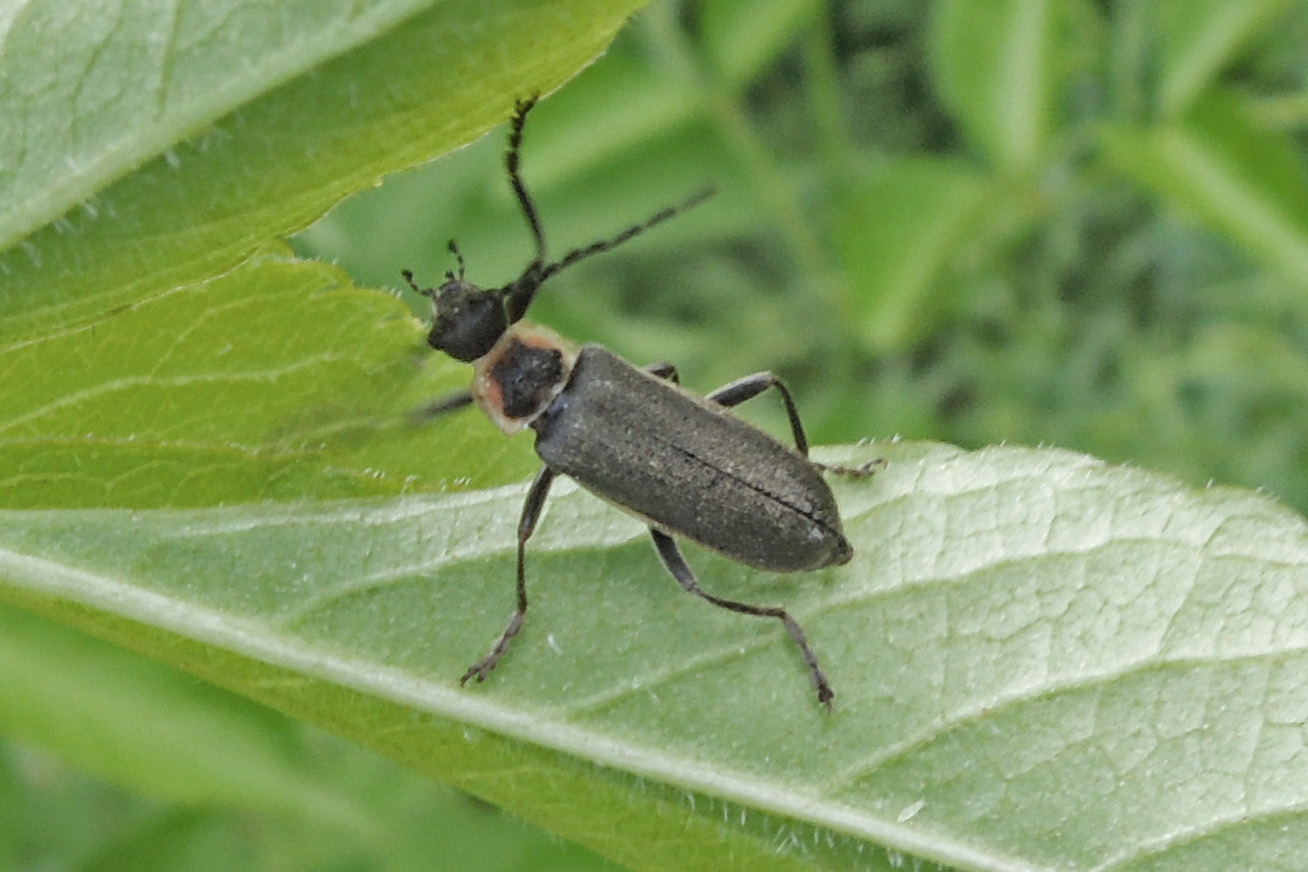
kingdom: Animalia
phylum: Arthropoda
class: Insecta
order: Coleoptera
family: Cantharidae
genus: Atalantycha
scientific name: Atalantycha dentigera
